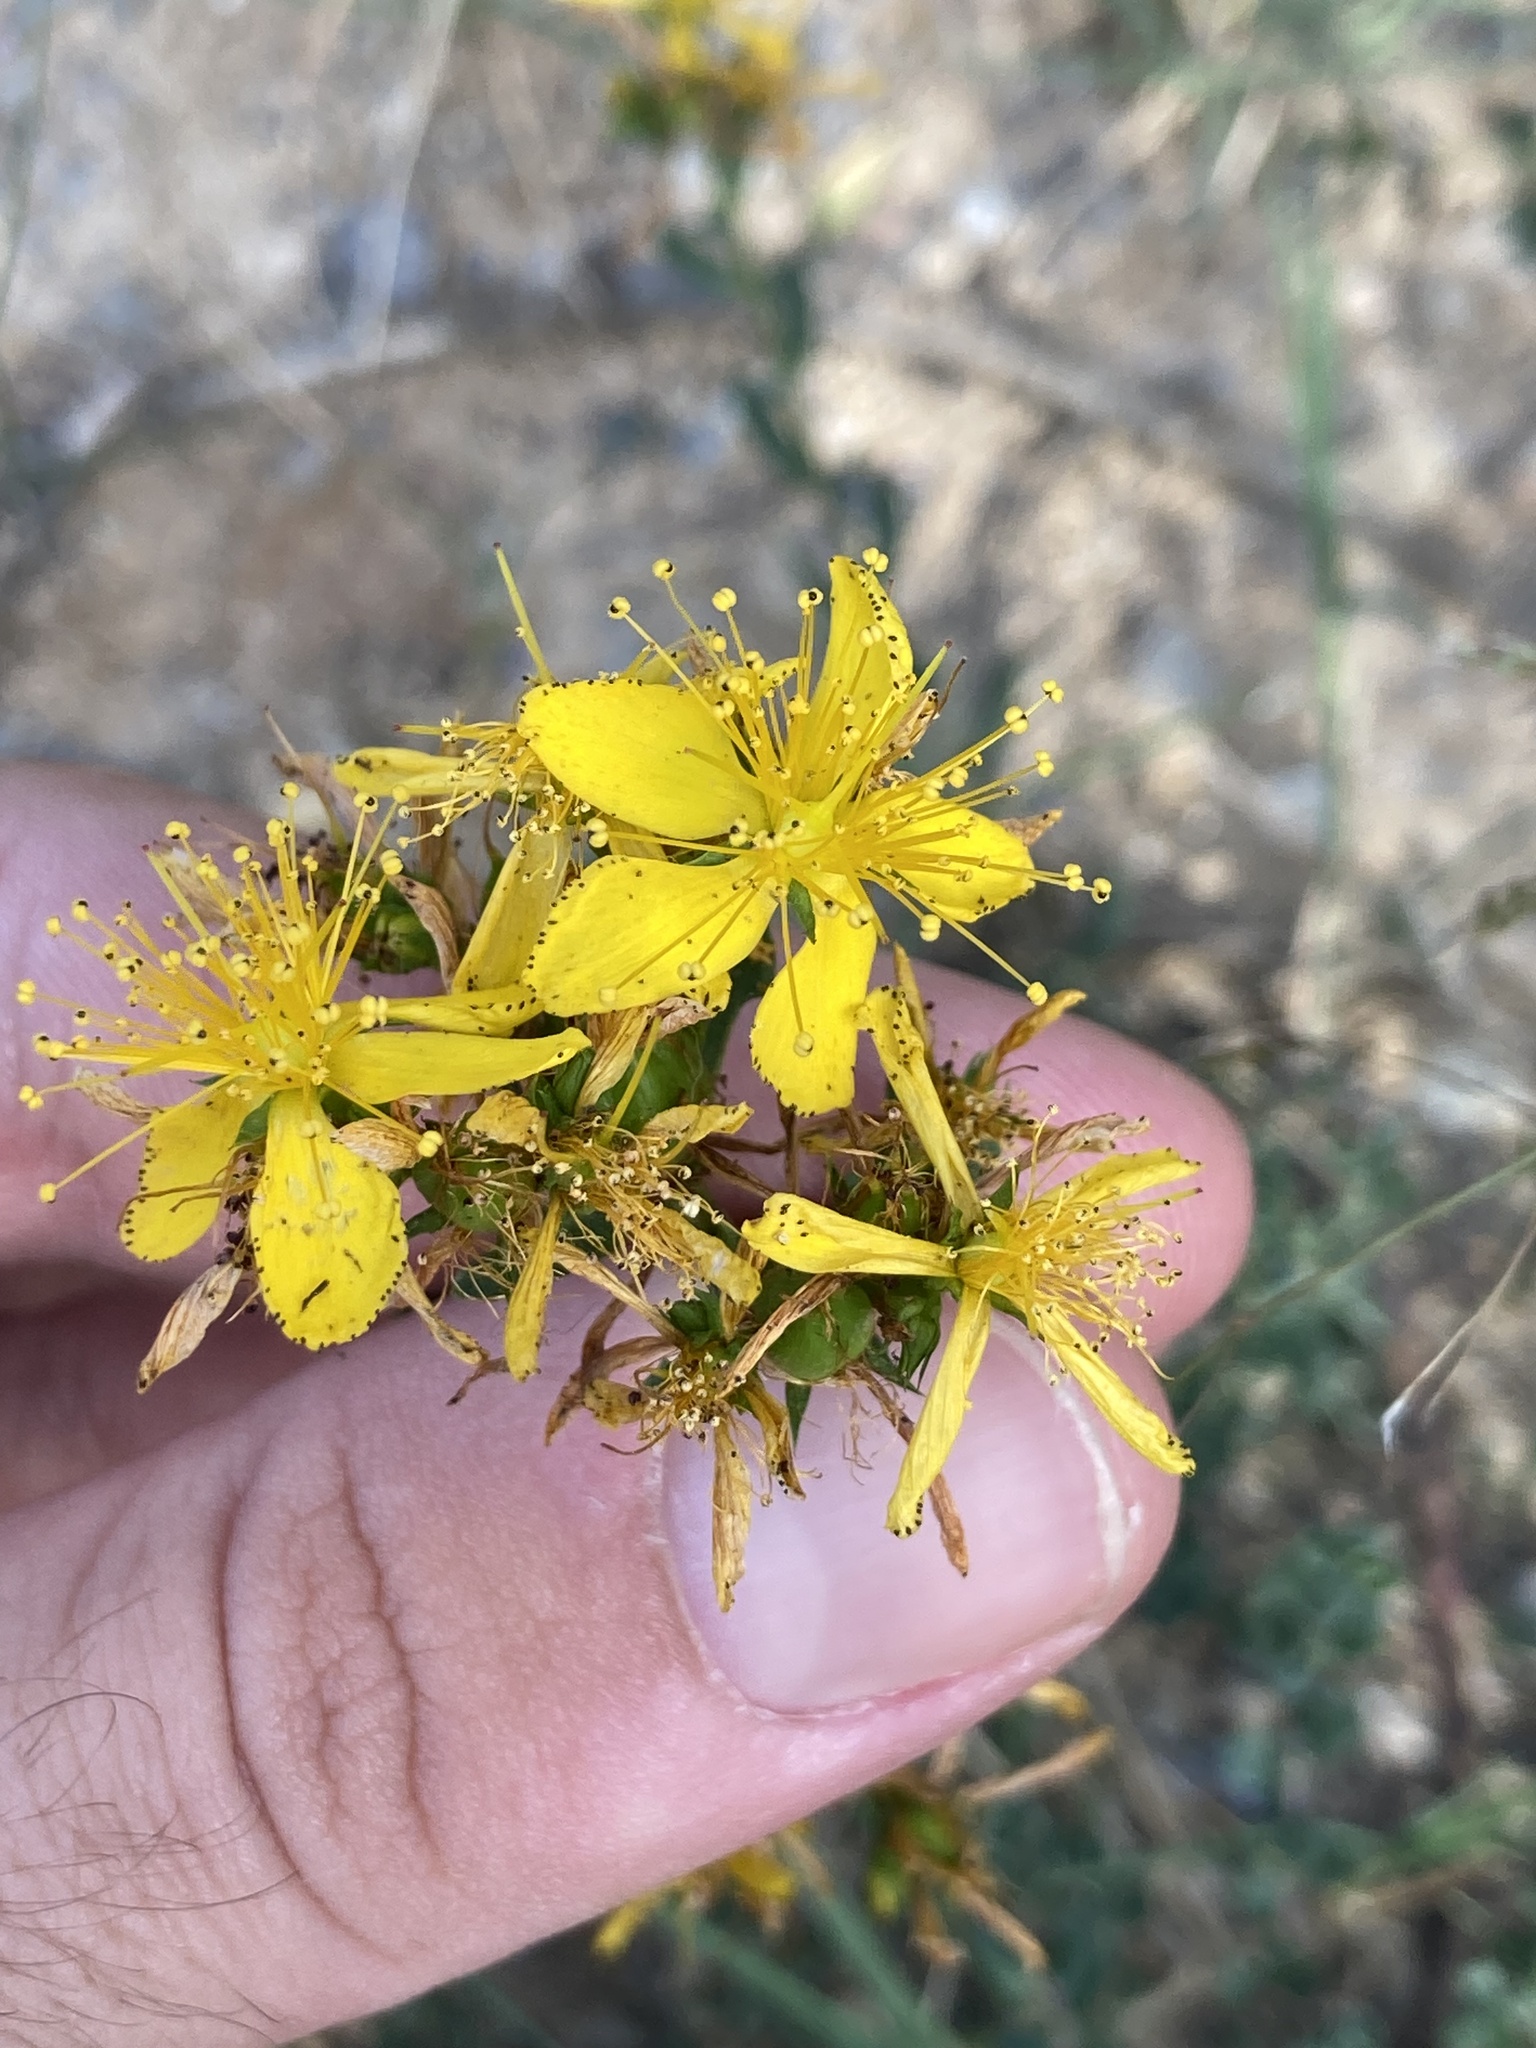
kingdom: Plantae
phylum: Tracheophyta
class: Magnoliopsida
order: Malpighiales
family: Hypericaceae
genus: Hypericum
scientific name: Hypericum perforatum
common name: Common st. johnswort
